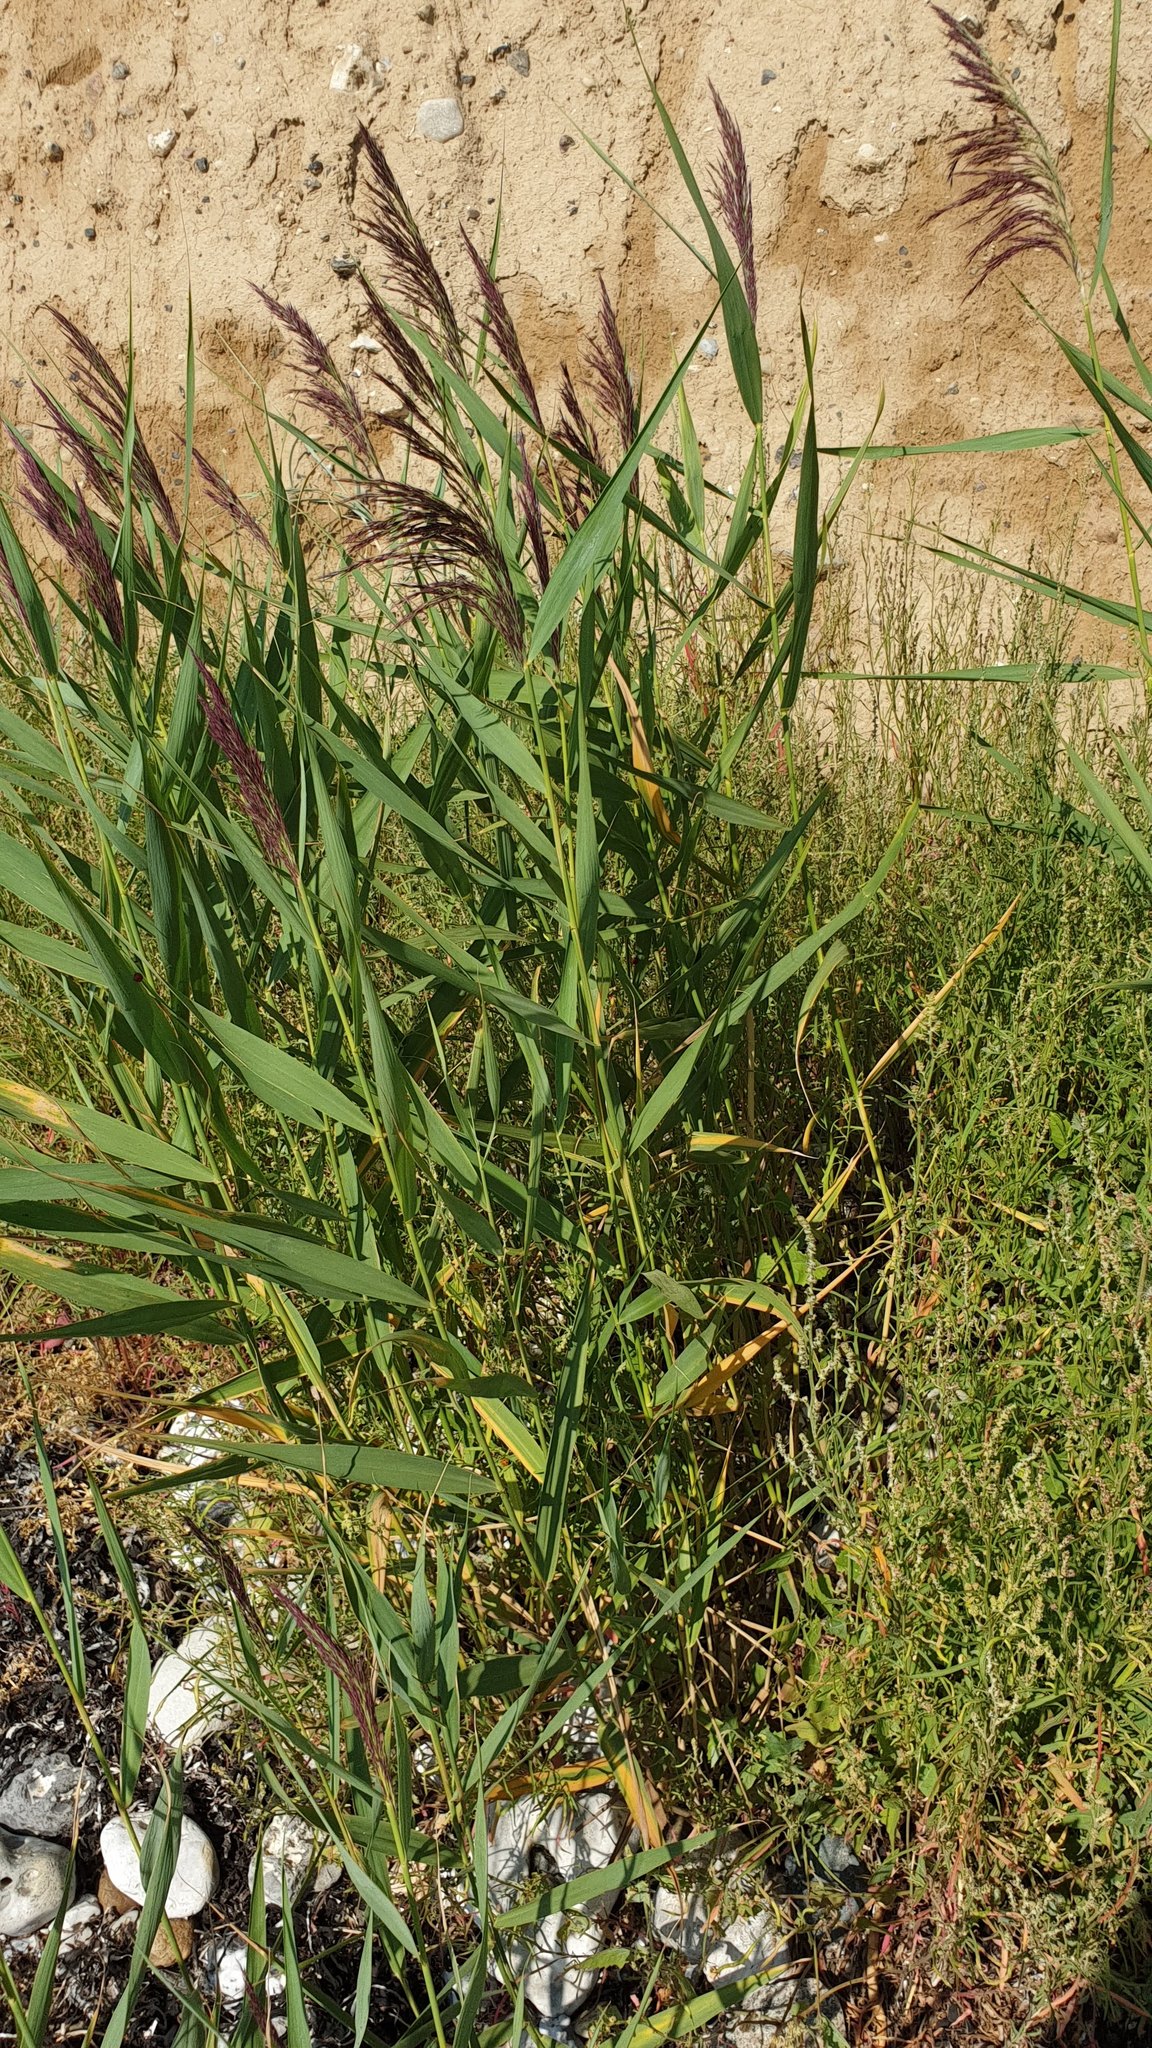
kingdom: Plantae
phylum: Tracheophyta
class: Liliopsida
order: Poales
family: Poaceae
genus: Phragmites
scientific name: Phragmites australis
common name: Common reed
